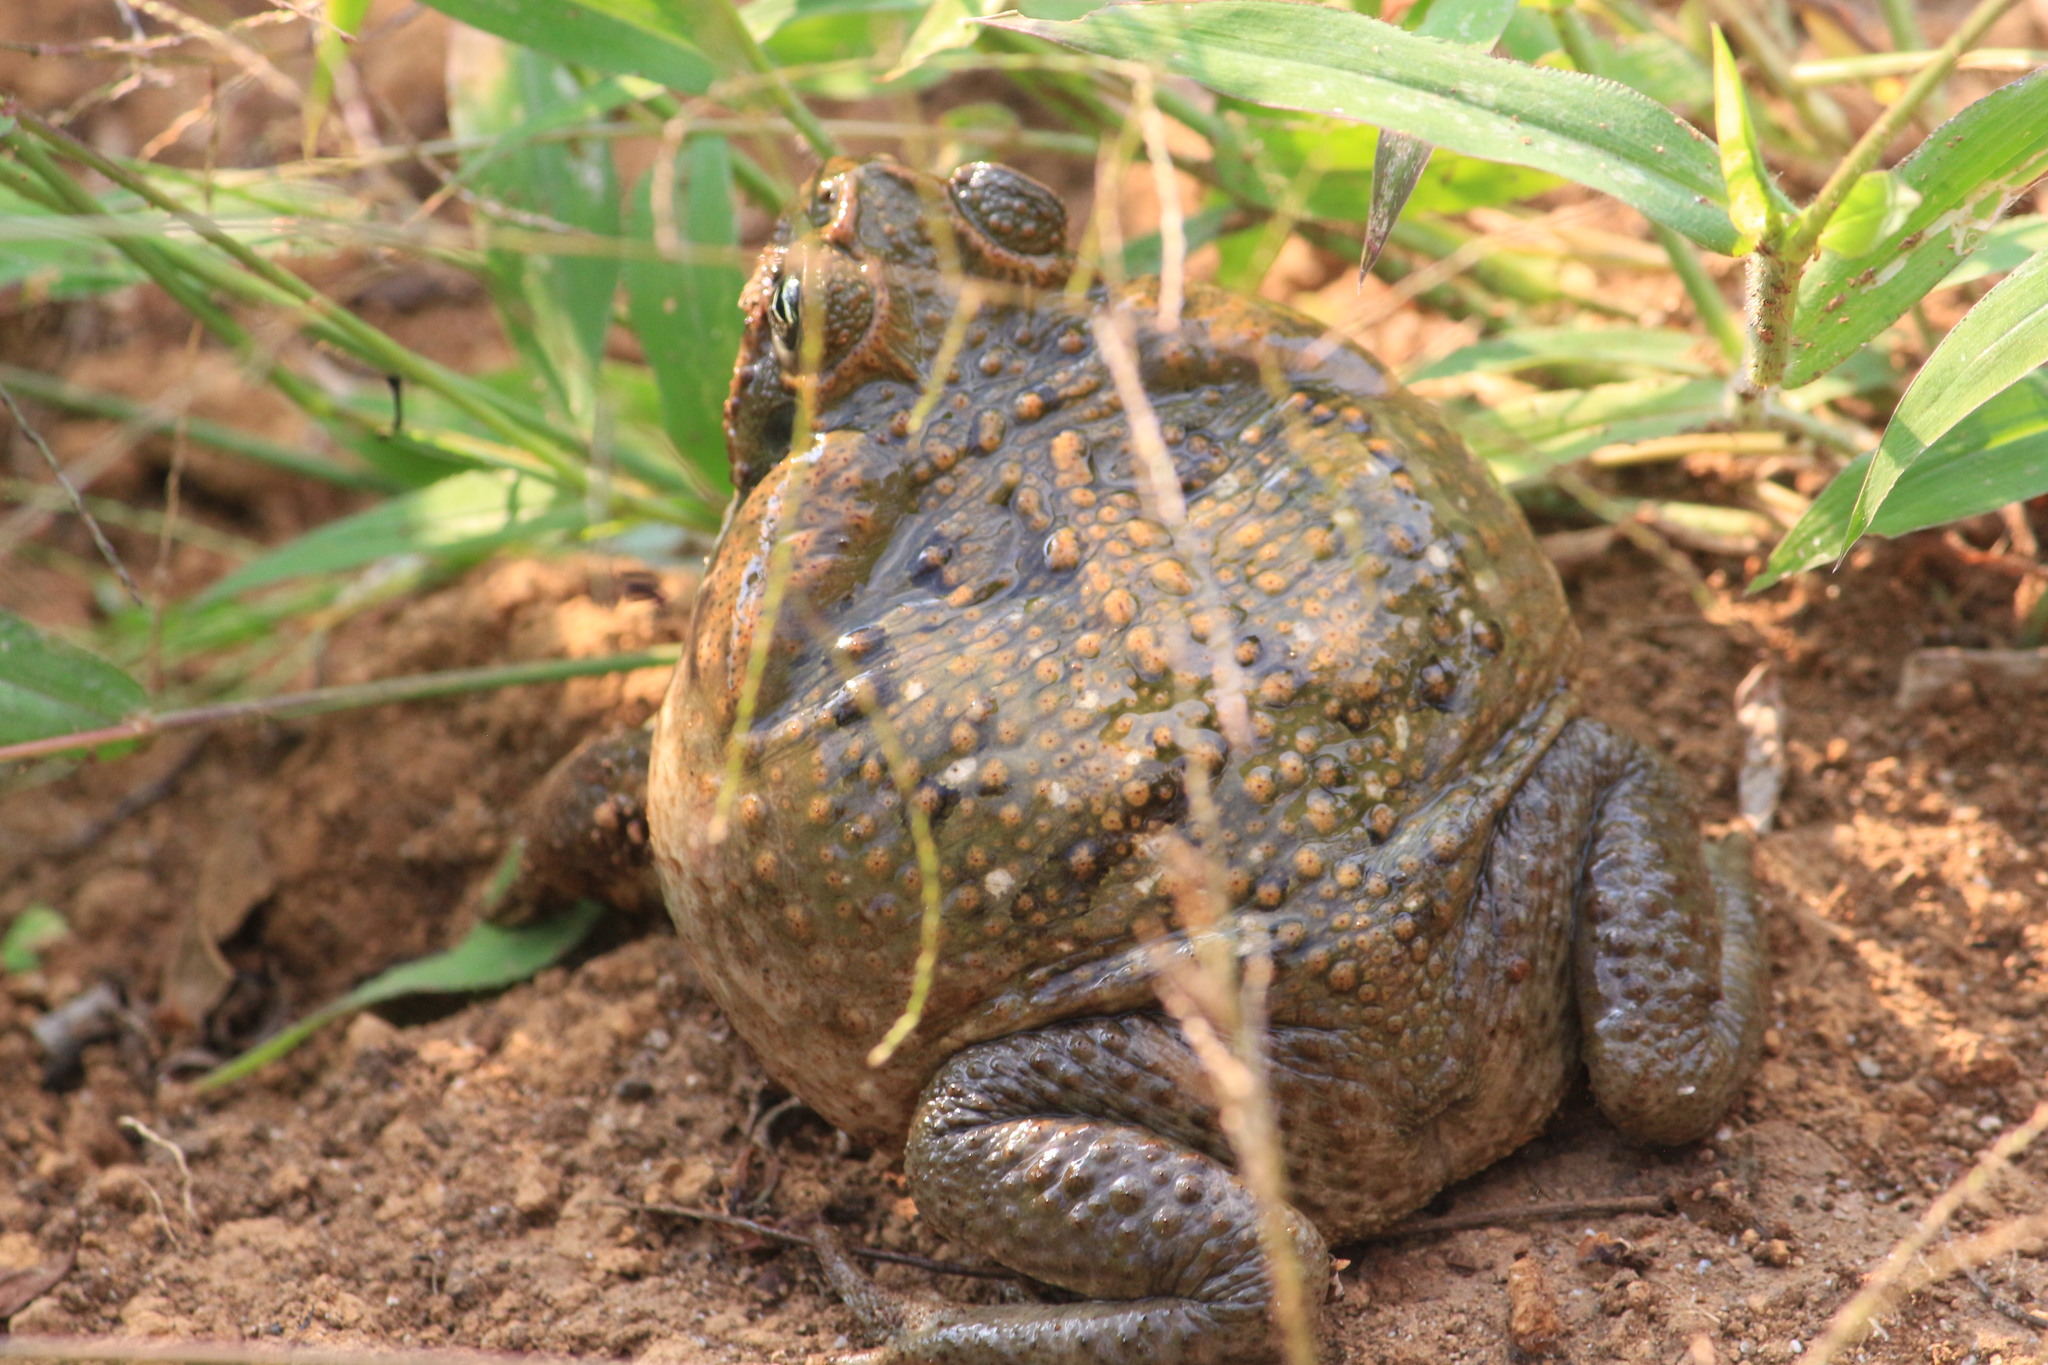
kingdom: Animalia
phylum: Chordata
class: Amphibia
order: Anura
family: Bufonidae
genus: Rhinella
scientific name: Rhinella horribilis
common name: Mesoamerican cane toad
